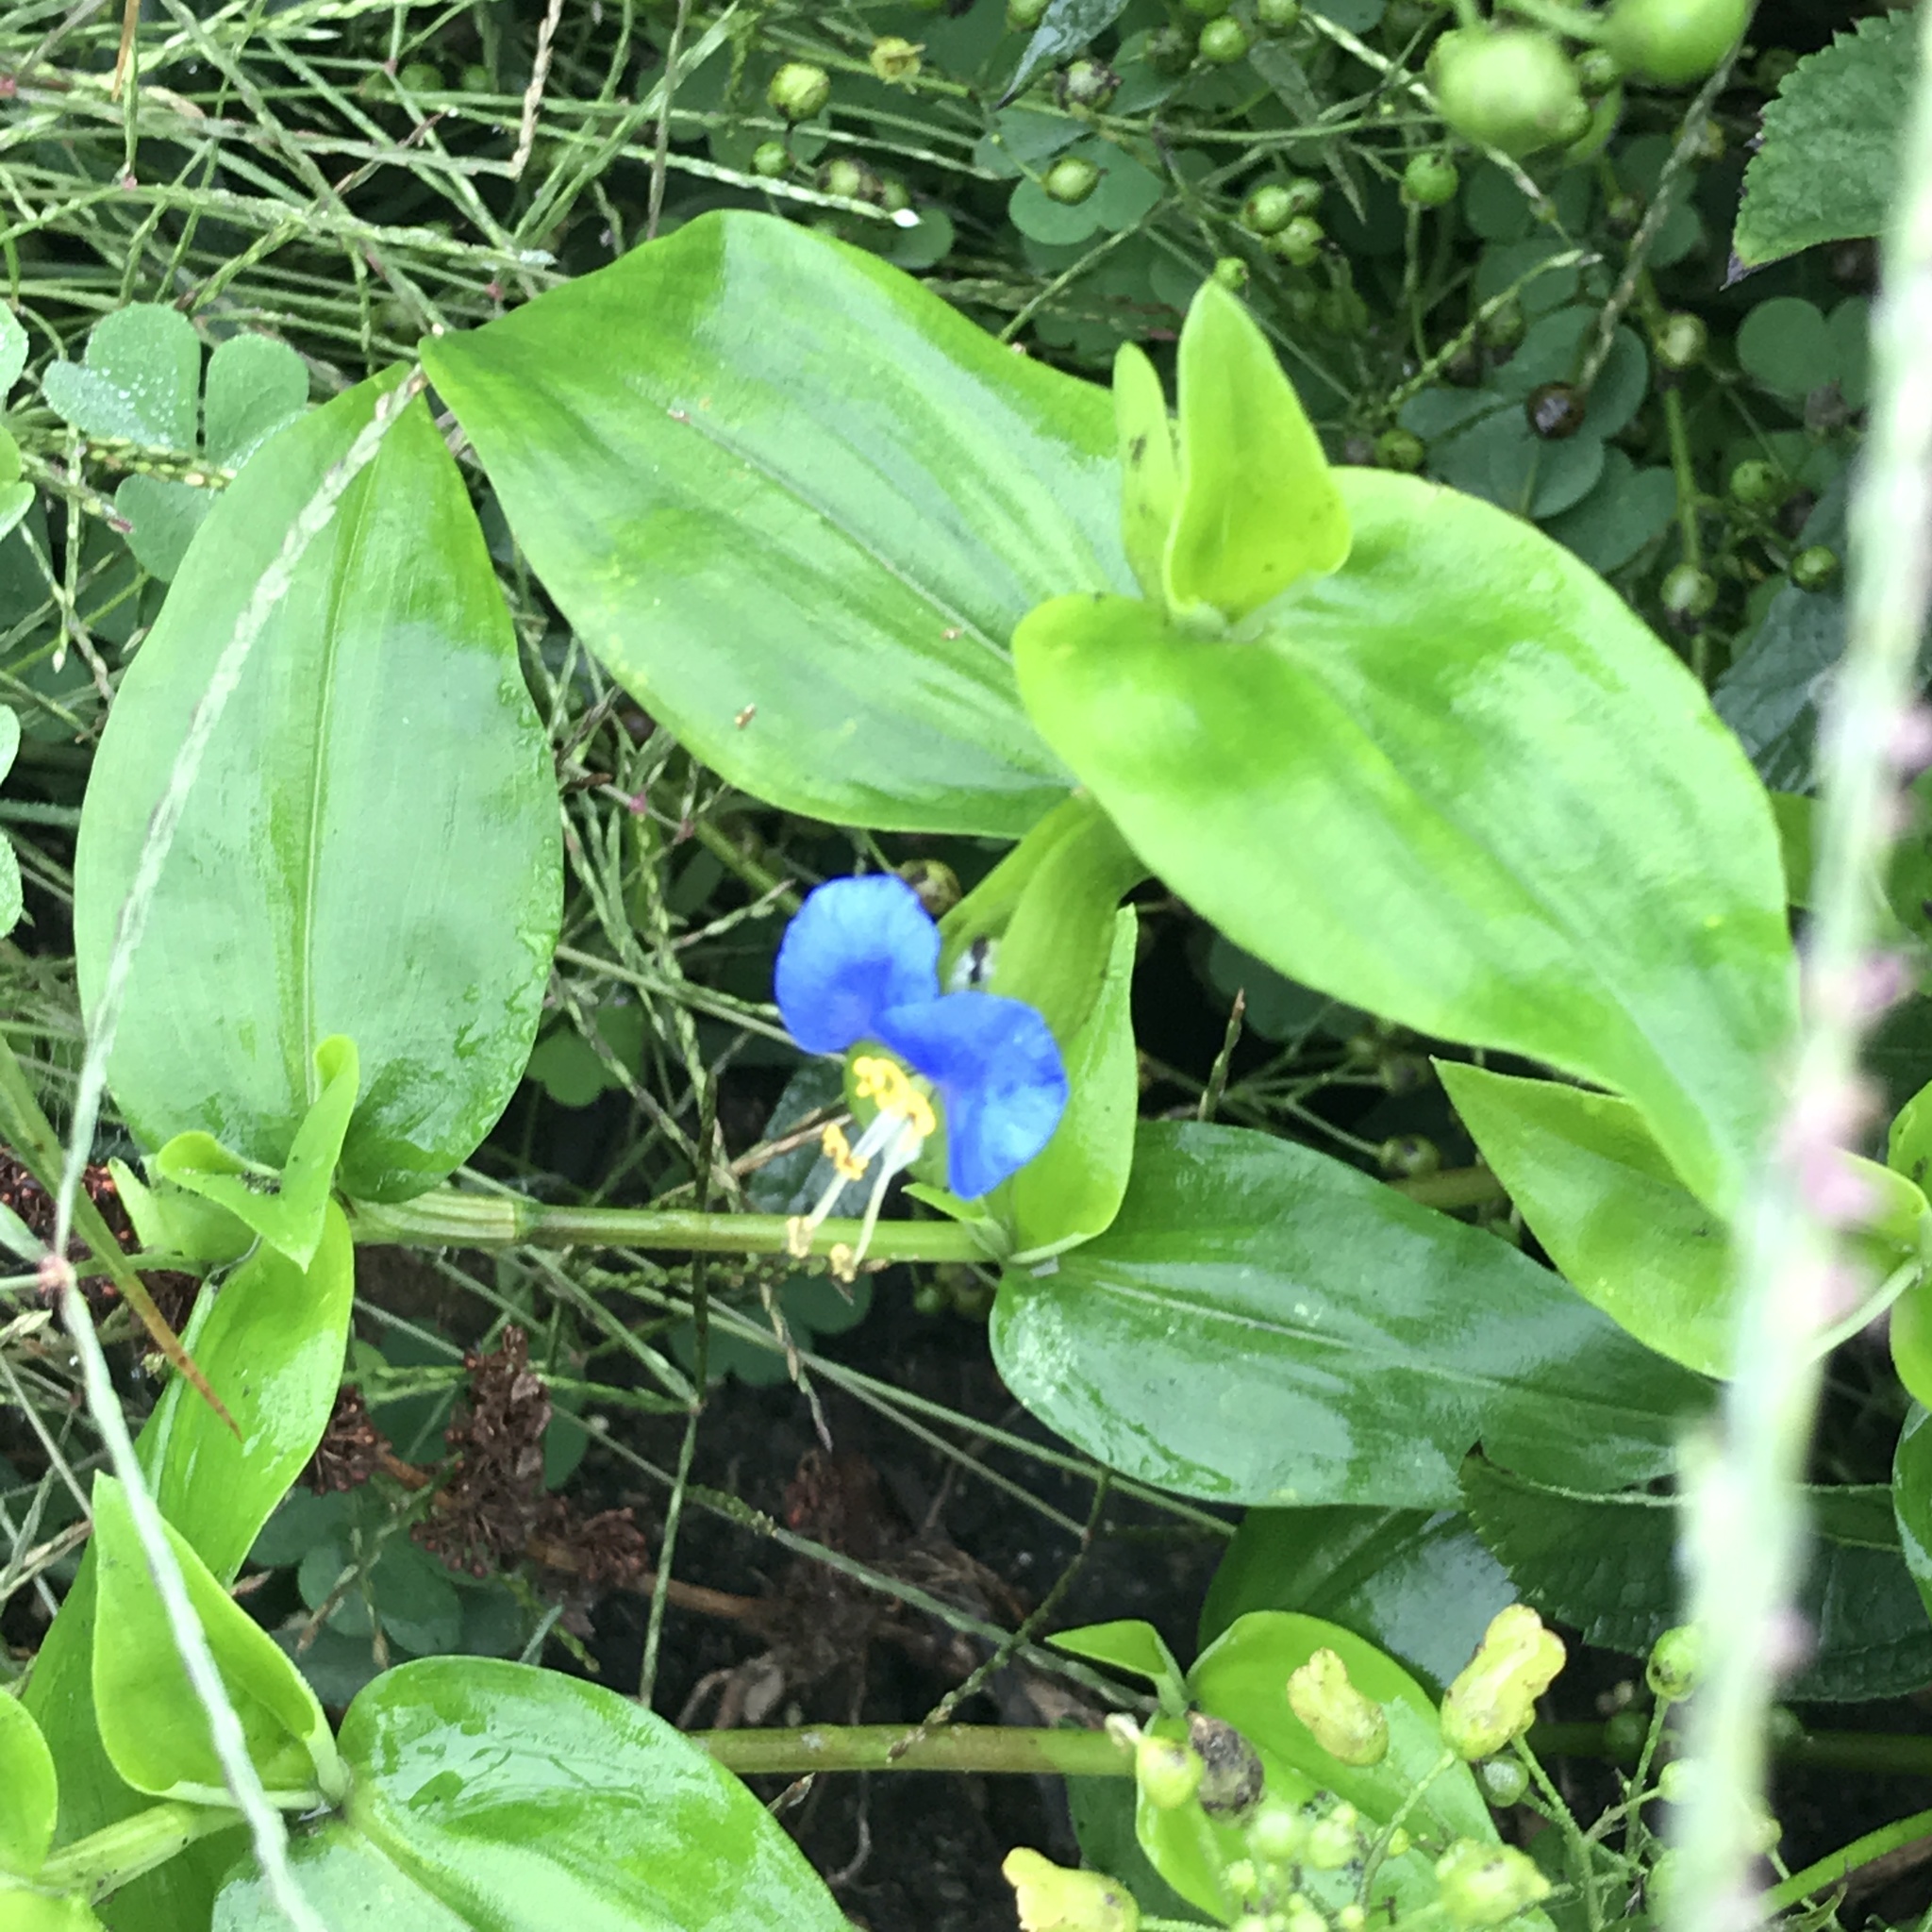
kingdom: Plantae
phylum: Tracheophyta
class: Liliopsida
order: Commelinales
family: Commelinaceae
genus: Commelina
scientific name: Commelina communis
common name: Asiatic dayflower
